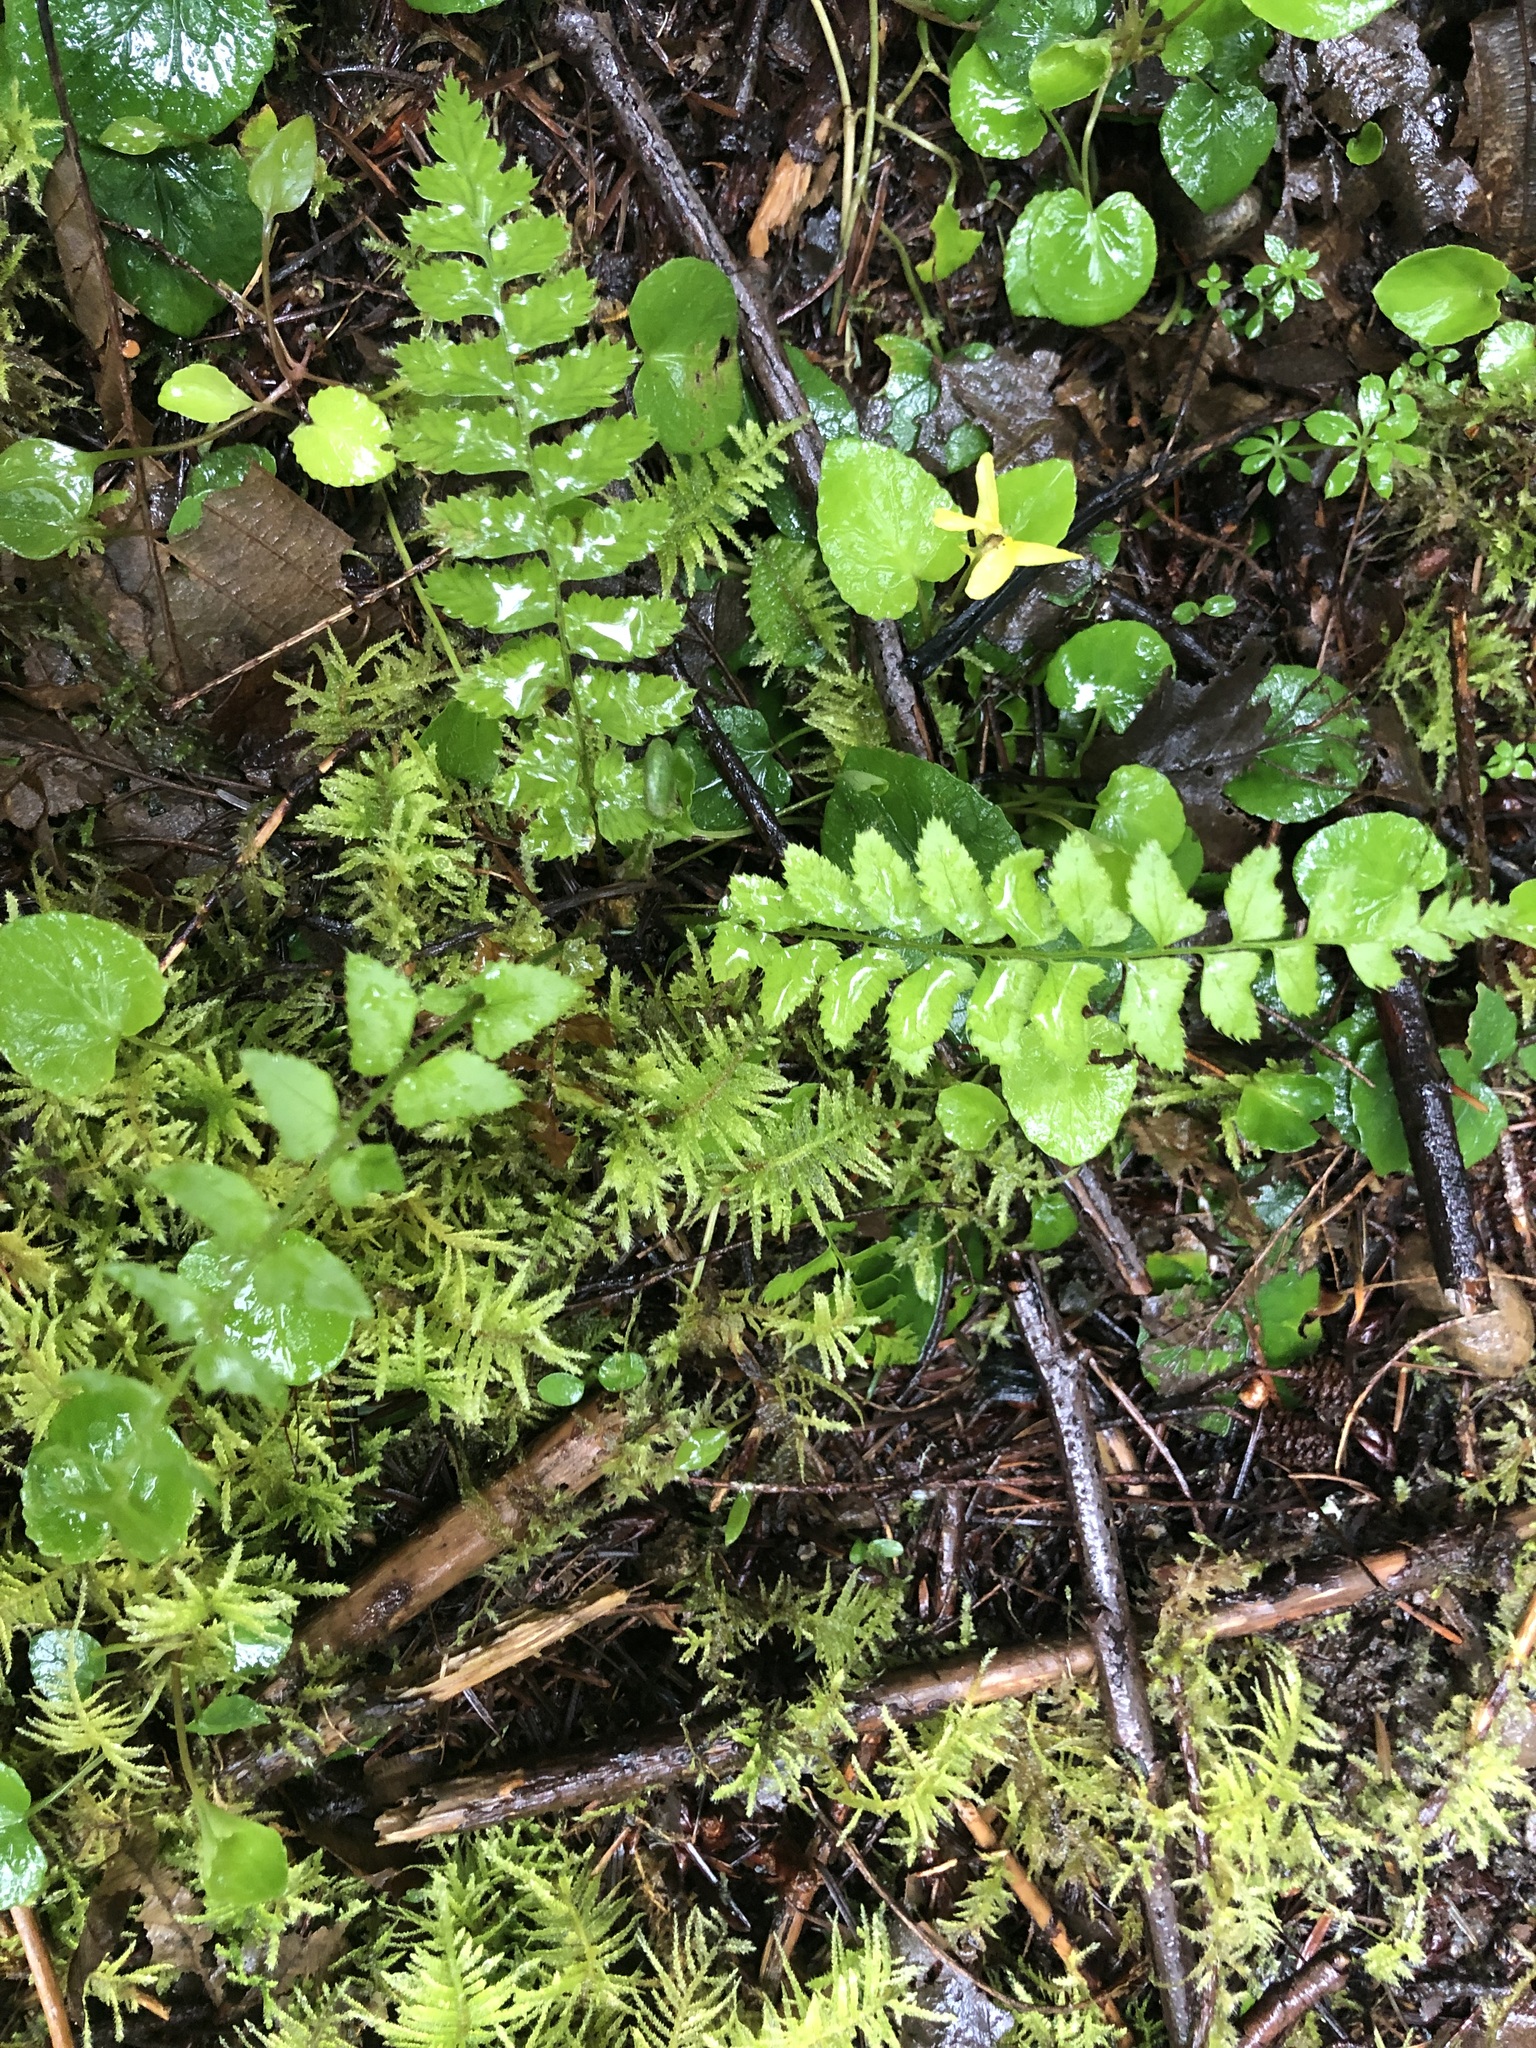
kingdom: Plantae
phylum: Tracheophyta
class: Polypodiopsida
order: Polypodiales
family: Dryopteridaceae
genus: Polystichum
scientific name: Polystichum munitum
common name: Western sword-fern
